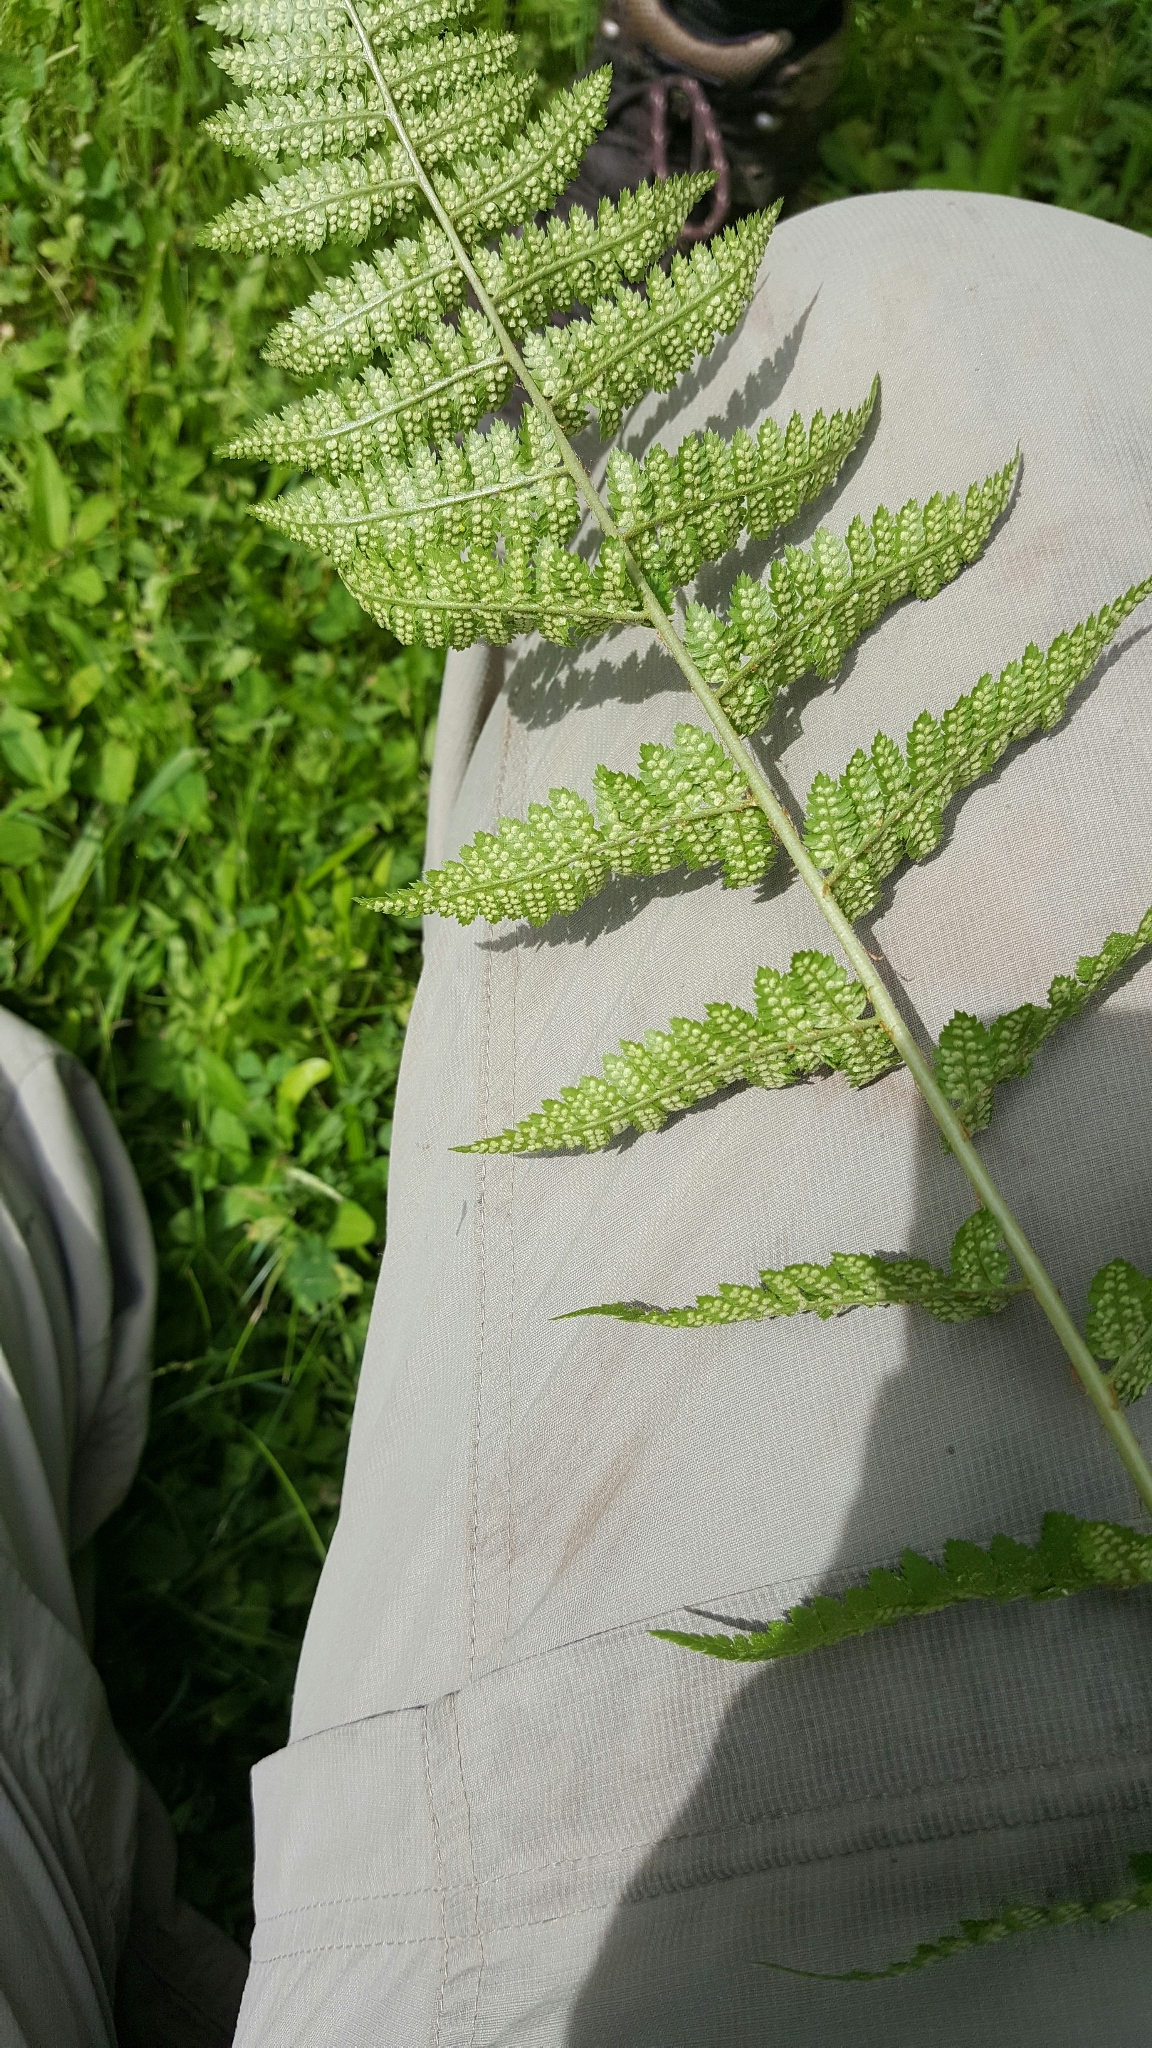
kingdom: Plantae
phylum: Tracheophyta
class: Polypodiopsida
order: Polypodiales
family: Dryopteridaceae
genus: Dryopteris
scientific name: Dryopteris dowellii
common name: Dowell's wood fern
